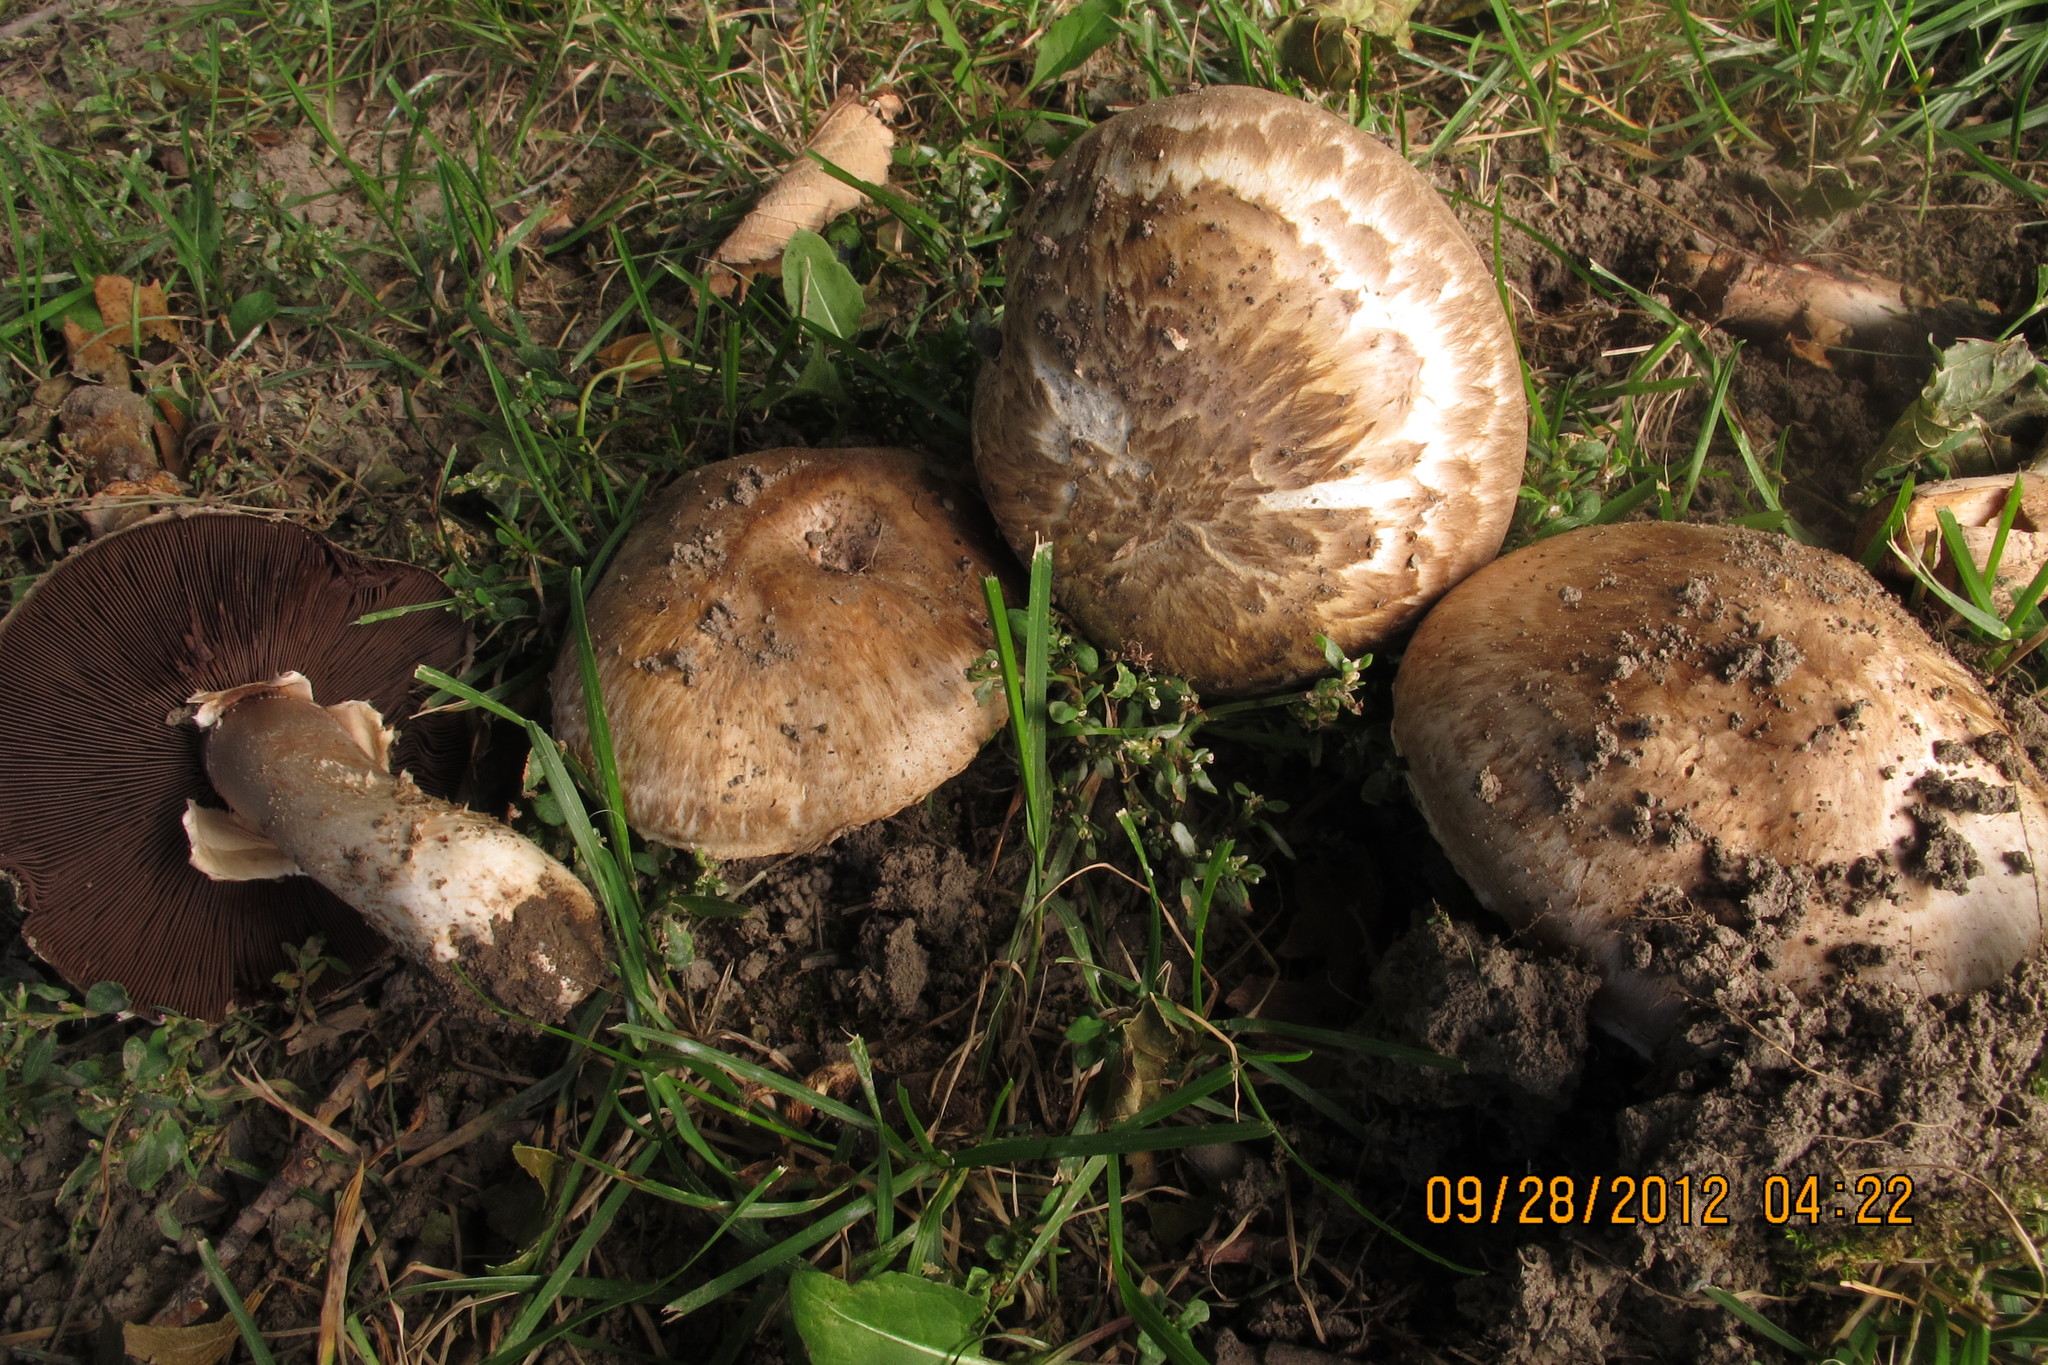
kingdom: Fungi
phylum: Basidiomycota
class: Agaricomycetes
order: Agaricales
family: Agaricaceae
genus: Agaricus
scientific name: Agaricus cappellianus
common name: Clustered mushroom
